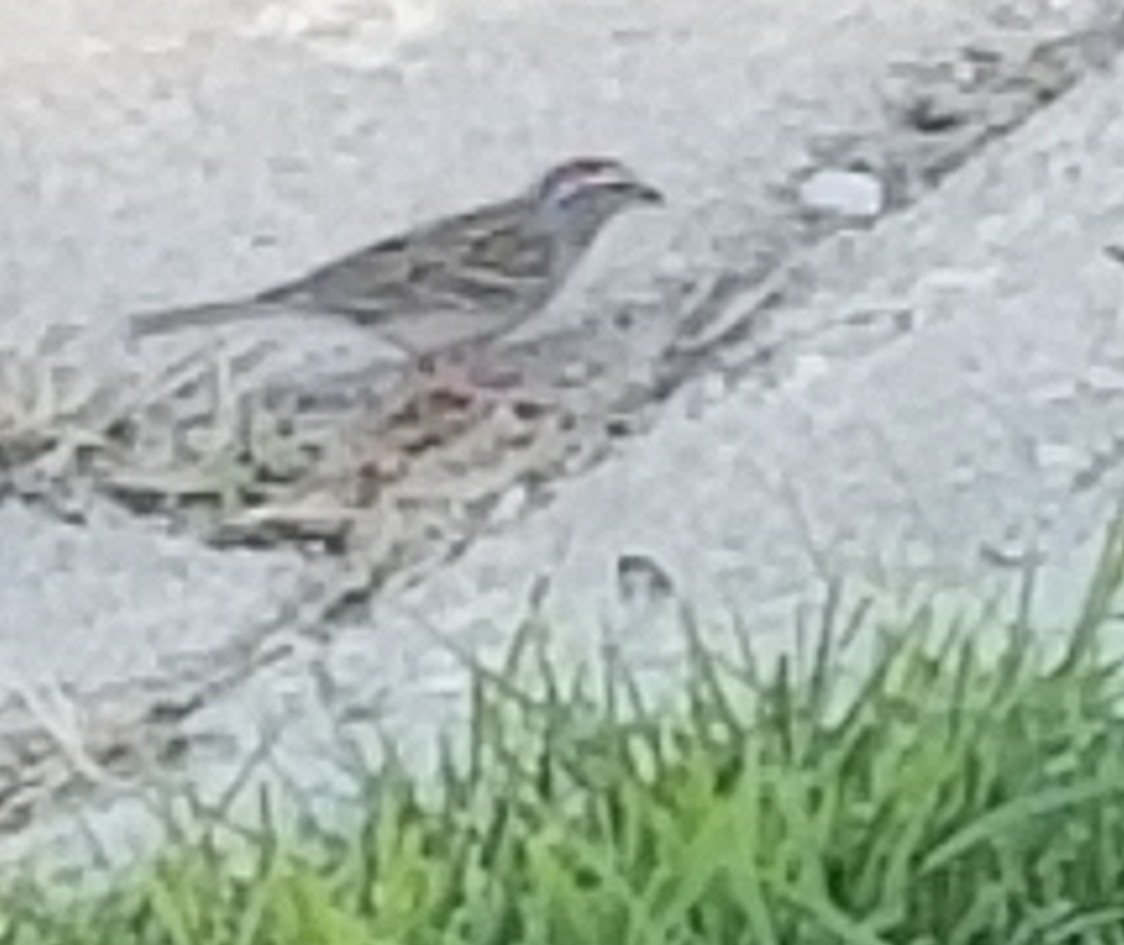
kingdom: Animalia
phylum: Chordata
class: Aves
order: Passeriformes
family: Passerellidae
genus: Spizella
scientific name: Spizella passerina
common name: Chipping sparrow
